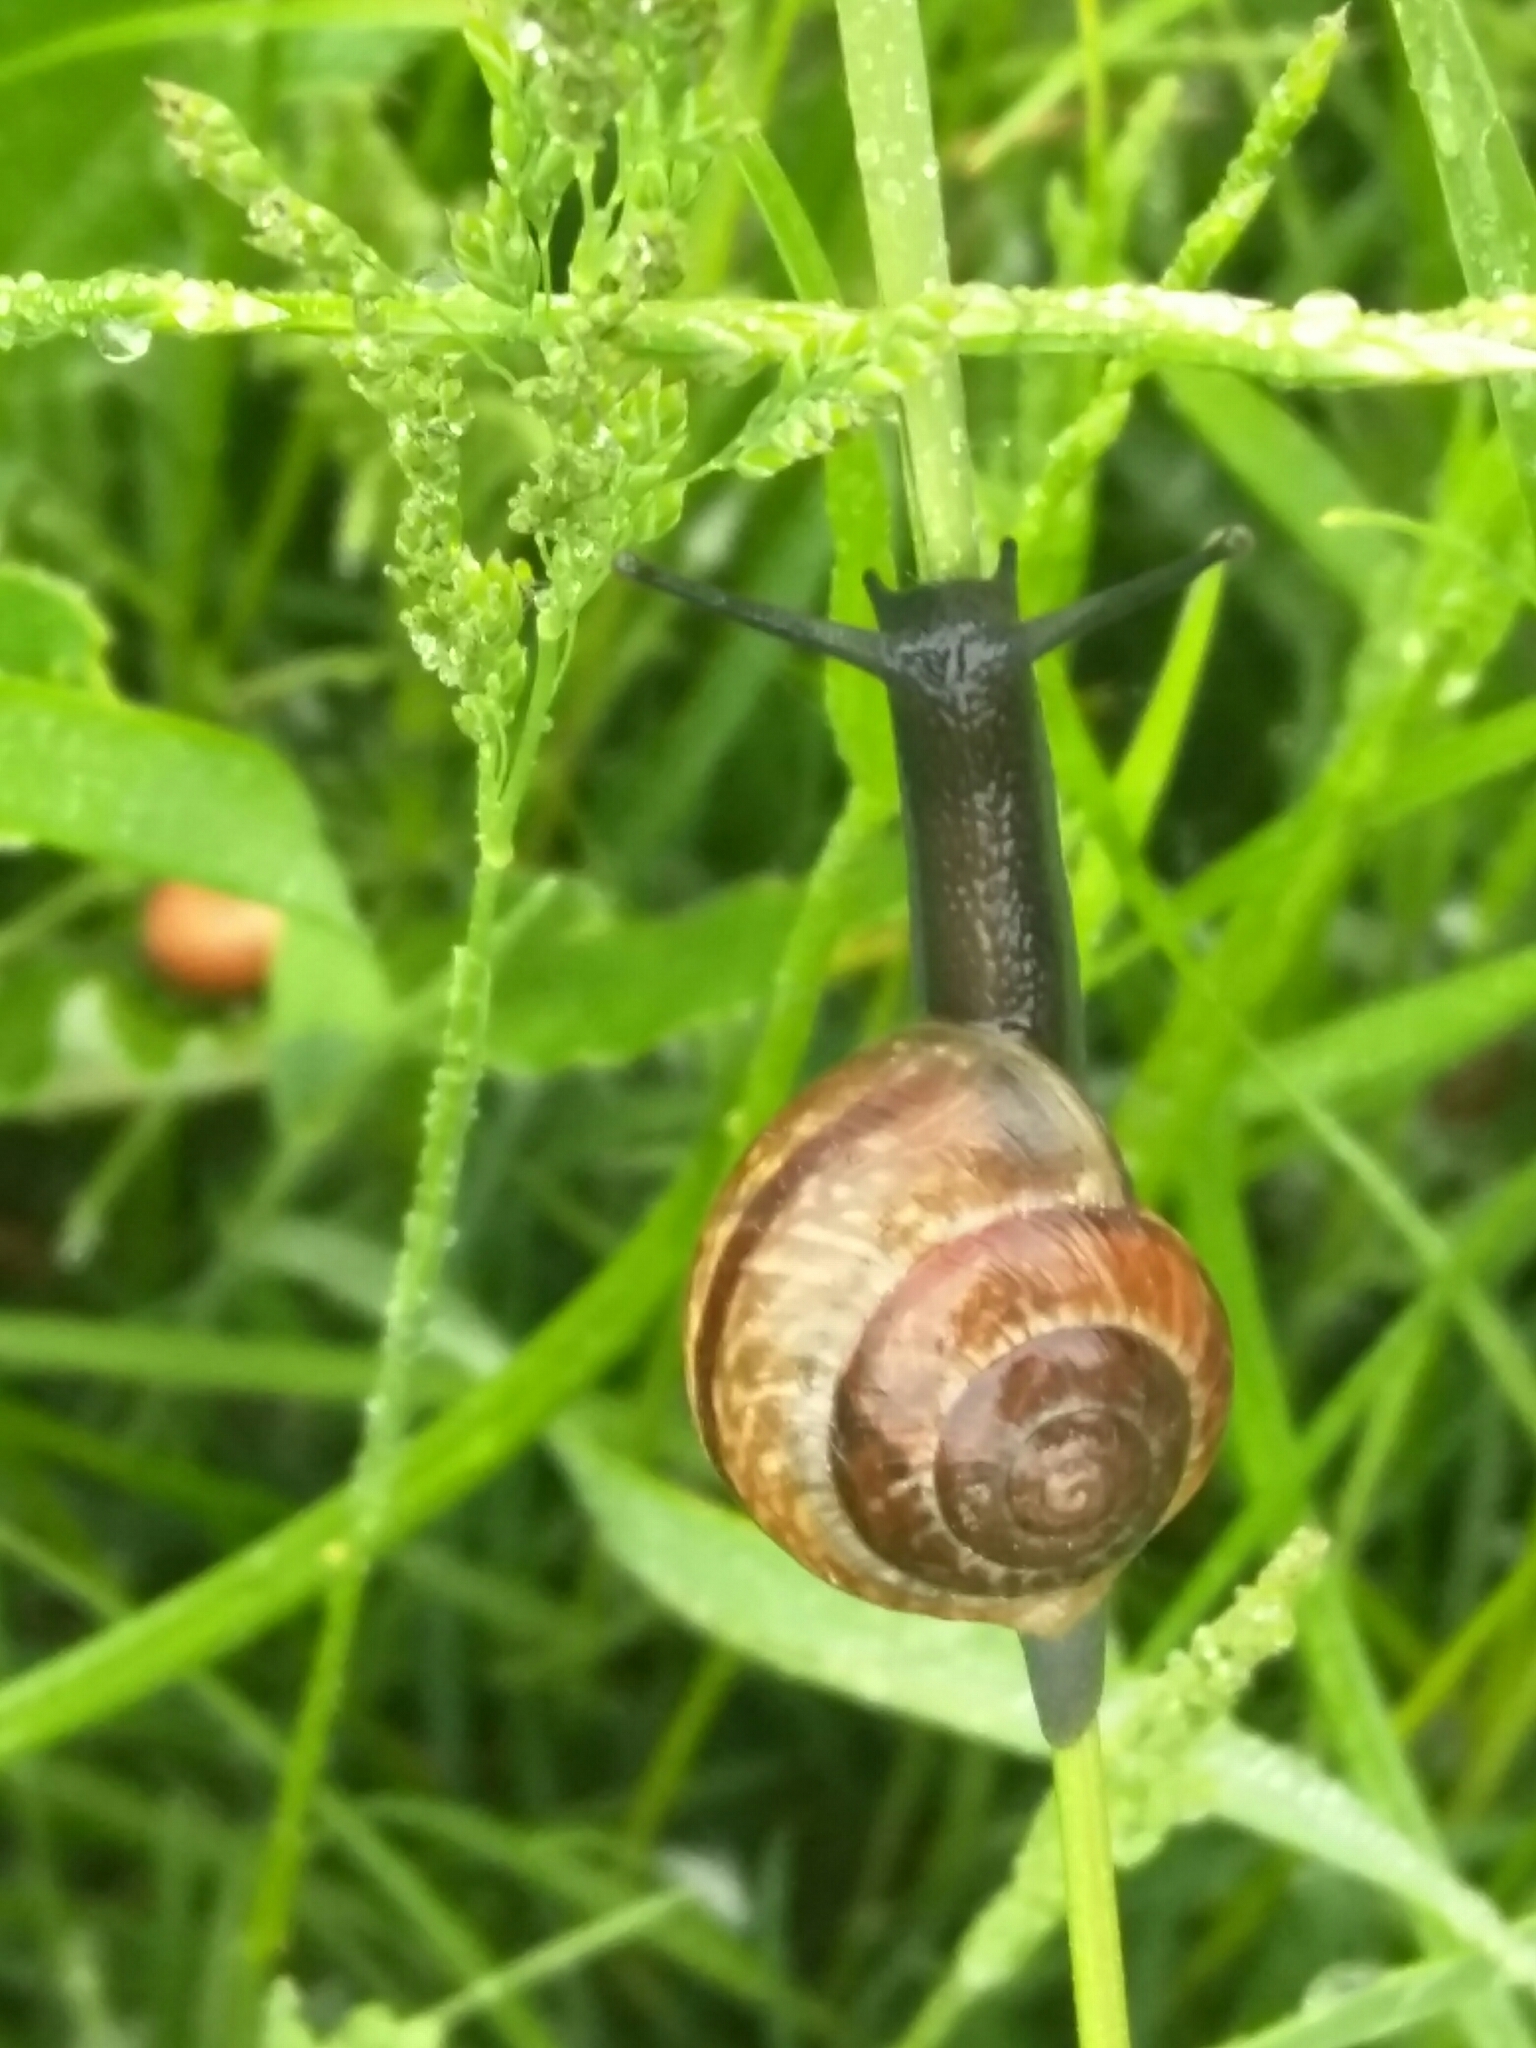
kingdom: Animalia
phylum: Mollusca
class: Gastropoda
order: Stylommatophora
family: Helicidae
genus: Arianta
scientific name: Arianta arbustorum
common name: Copse snail
